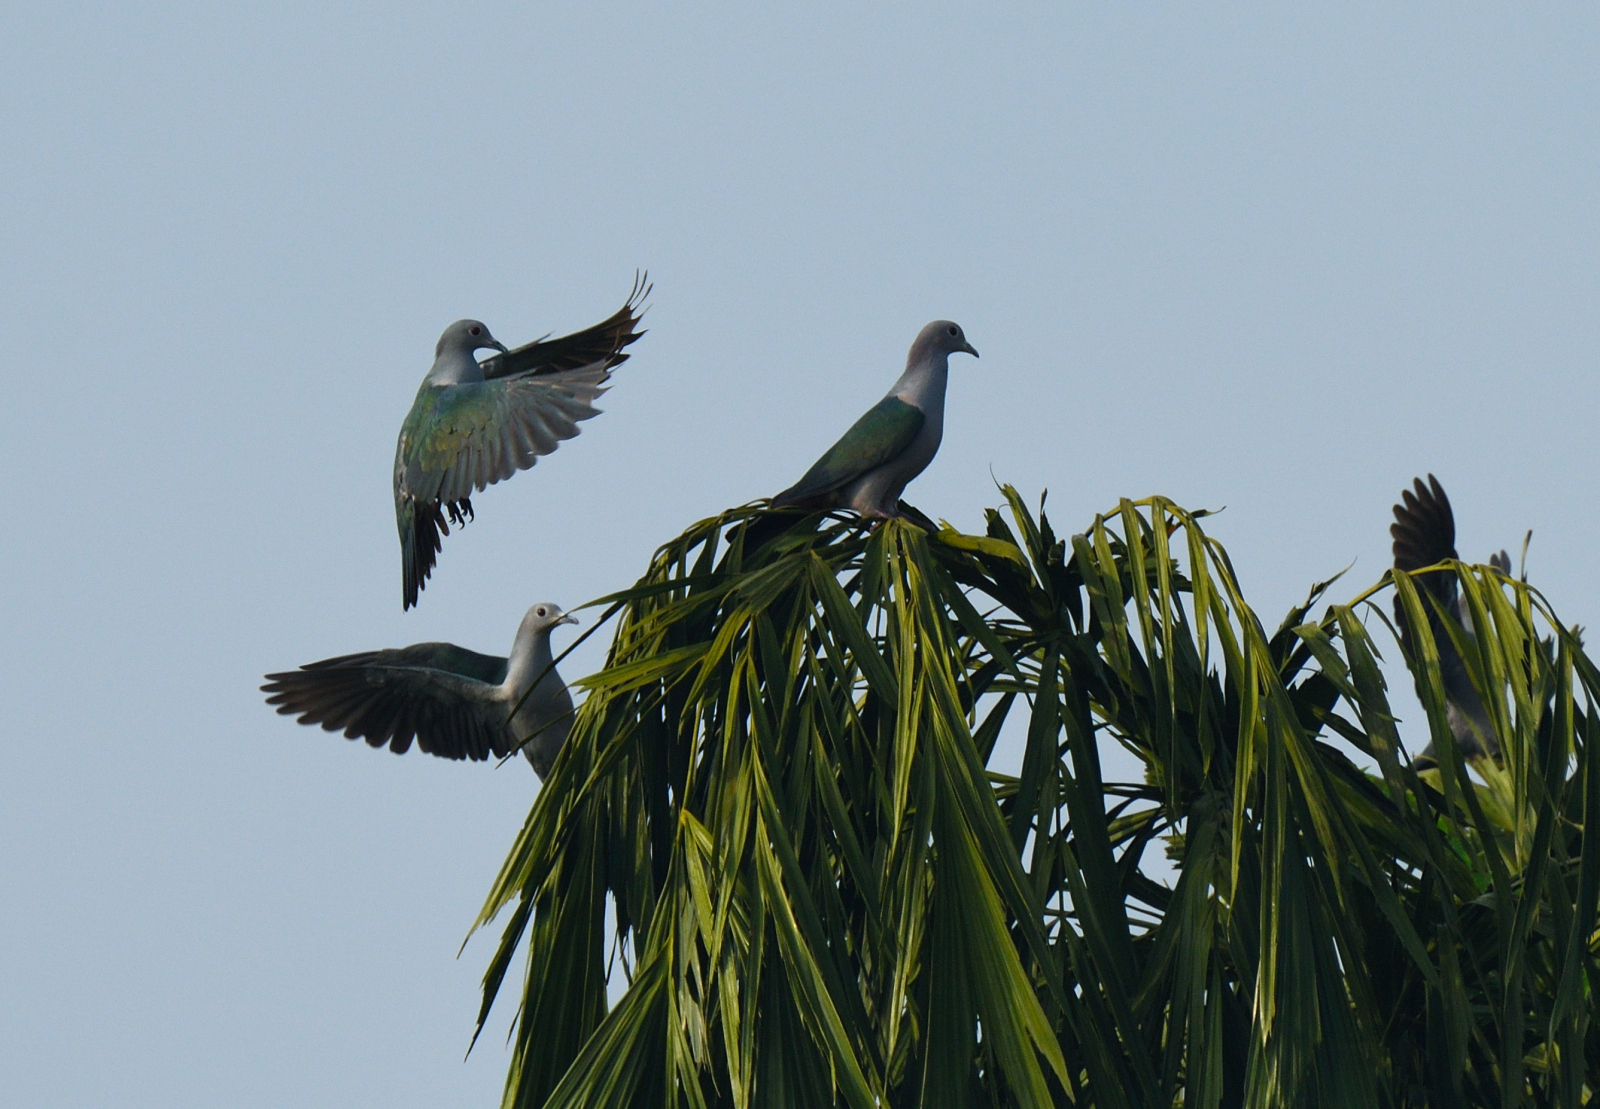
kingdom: Animalia
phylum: Chordata
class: Aves
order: Columbiformes
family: Columbidae
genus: Ducula
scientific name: Ducula aenea
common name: Green imperial pigeon
